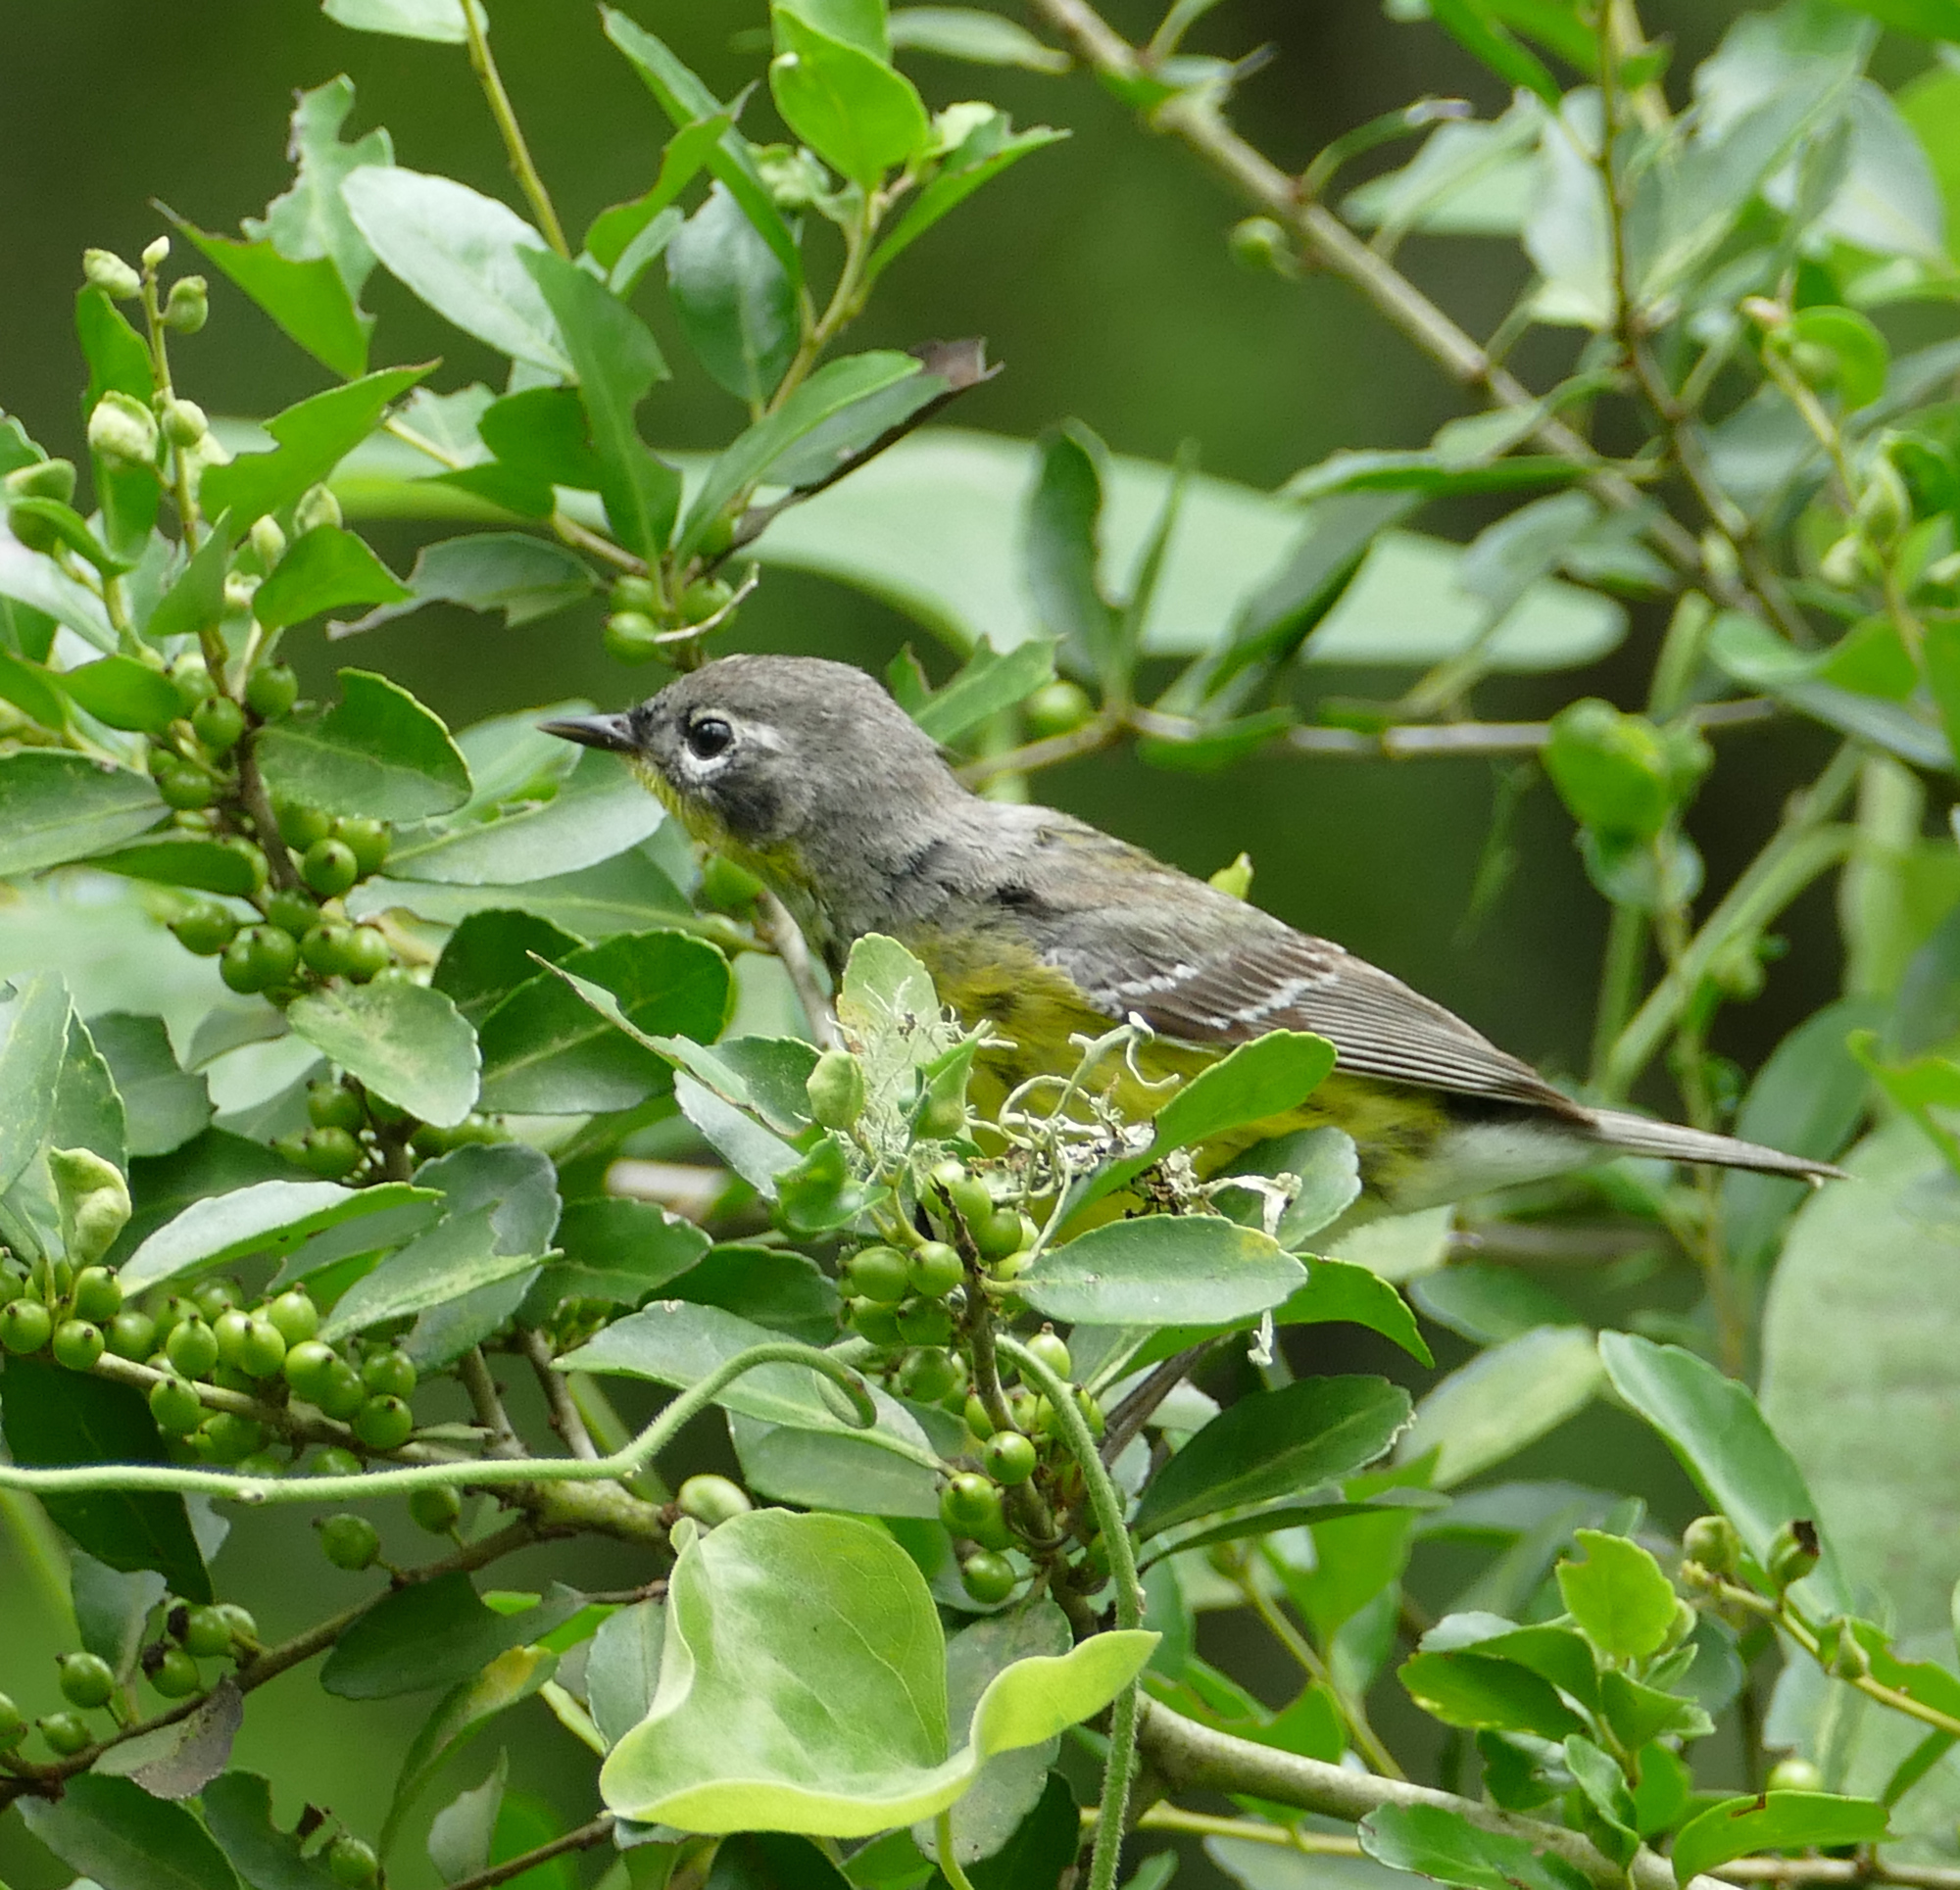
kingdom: Animalia
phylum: Chordata
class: Aves
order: Passeriformes
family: Parulidae
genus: Setophaga
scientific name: Setophaga magnolia
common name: Magnolia warbler
